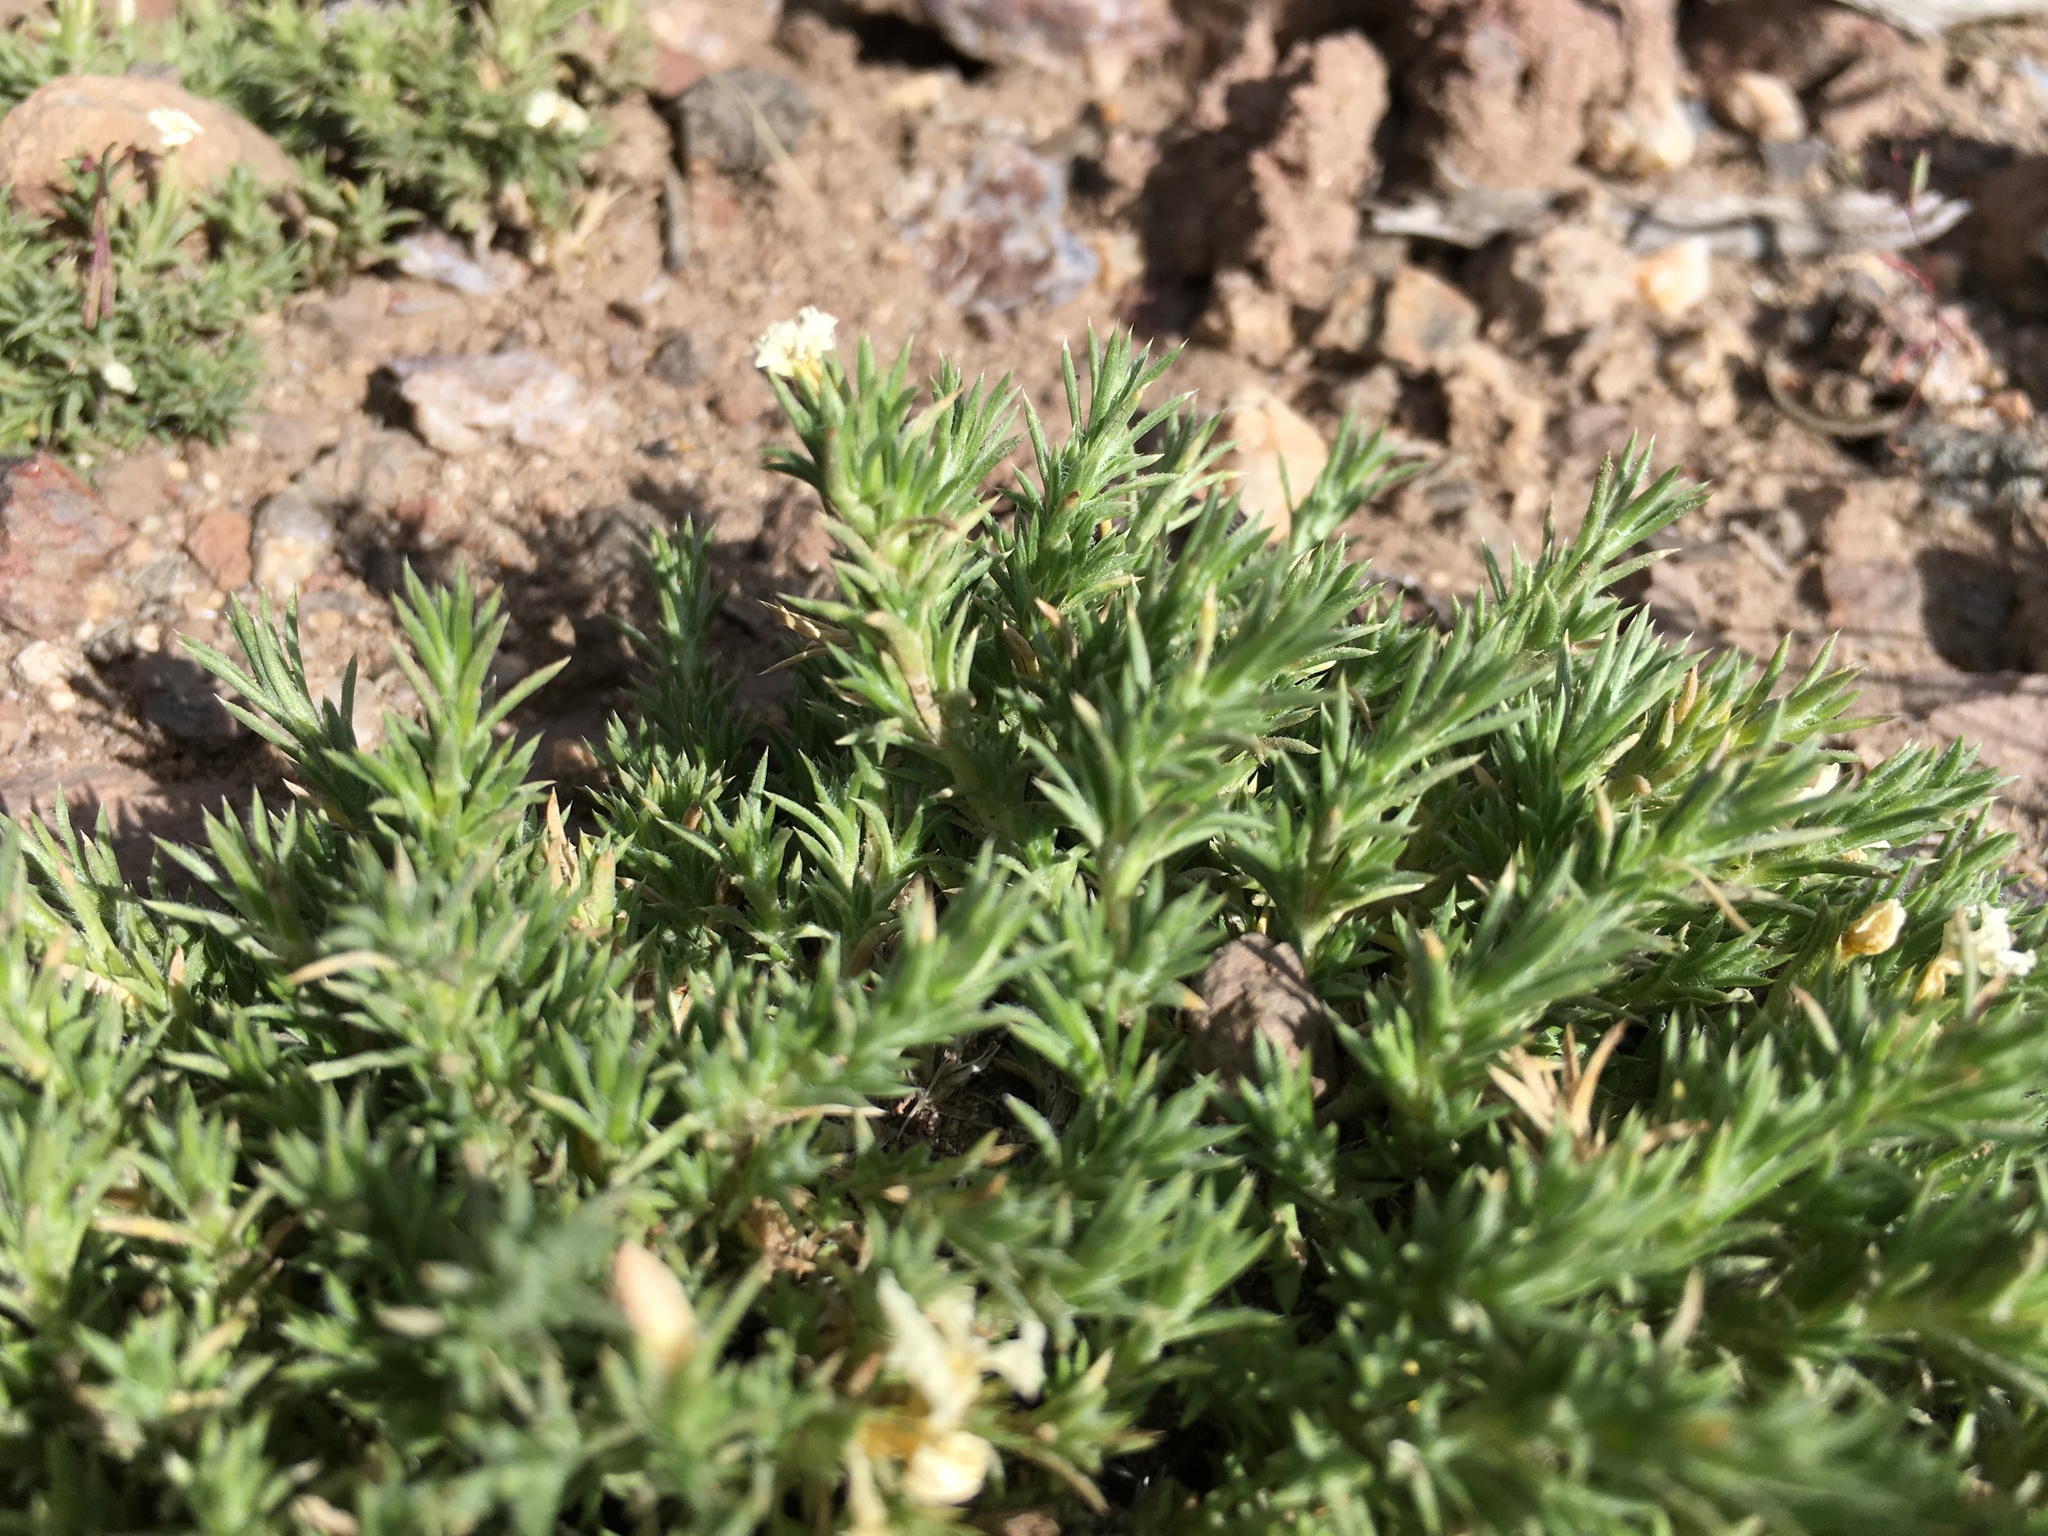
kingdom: Plantae
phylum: Tracheophyta
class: Magnoliopsida
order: Ericales
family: Polemoniaceae
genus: Phlox
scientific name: Phlox hoodii
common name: Moss phlox
